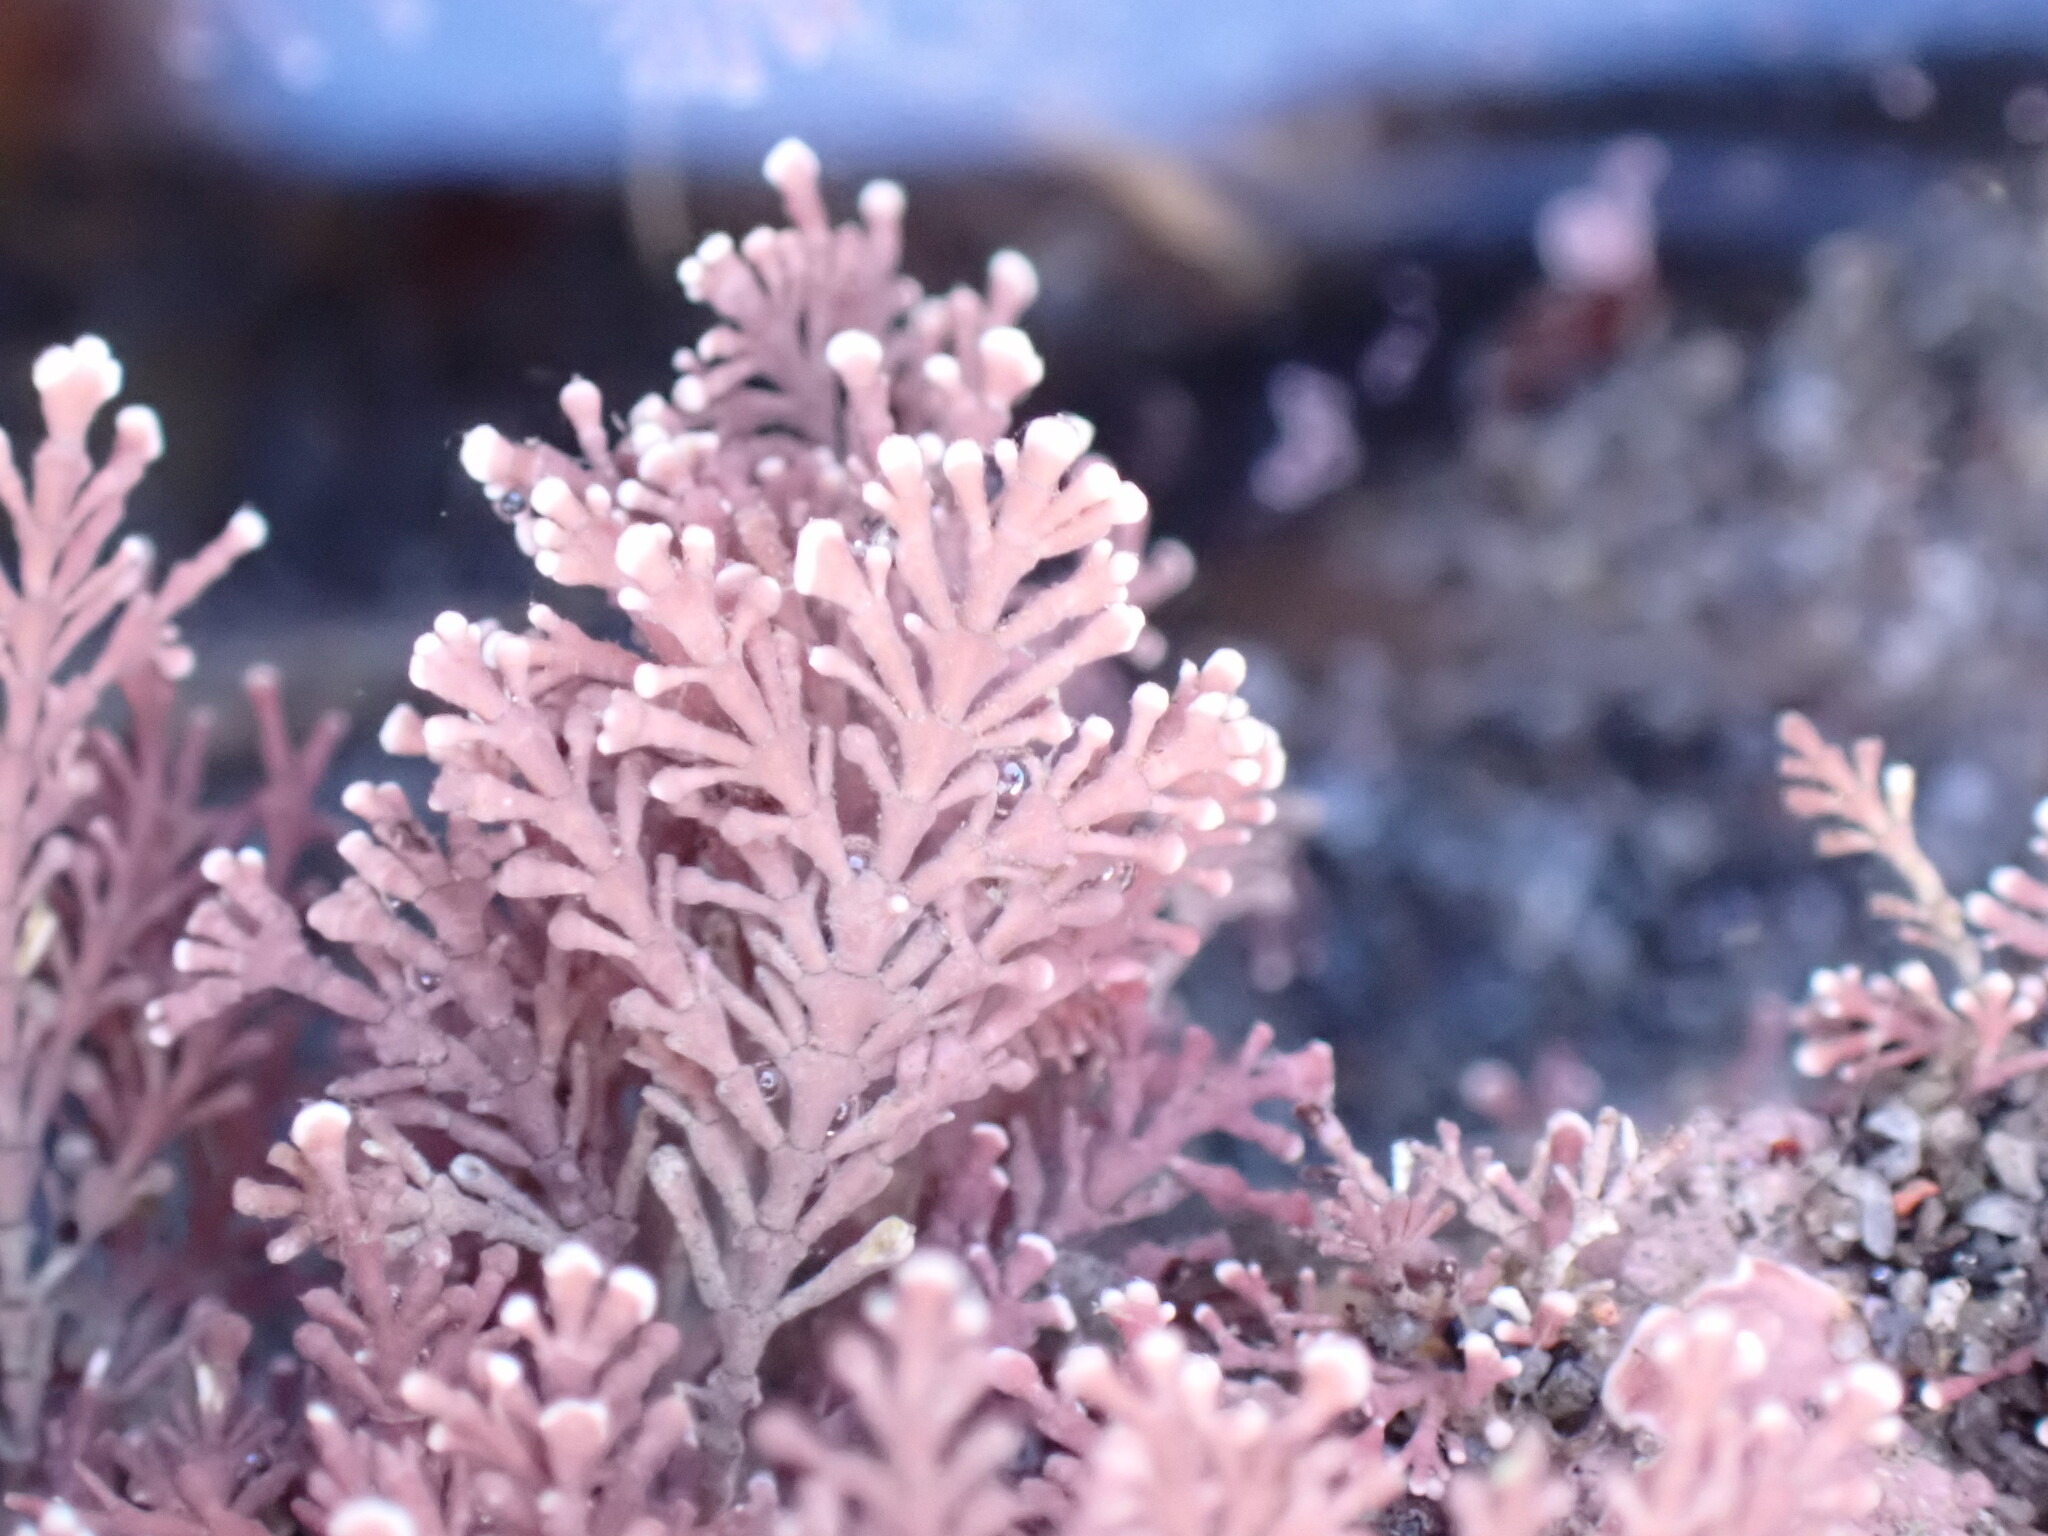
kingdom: Plantae
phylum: Rhodophyta
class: Florideophyceae
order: Corallinales
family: Corallinaceae
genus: Corallina
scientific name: Corallina officinalis
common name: Coral weed
